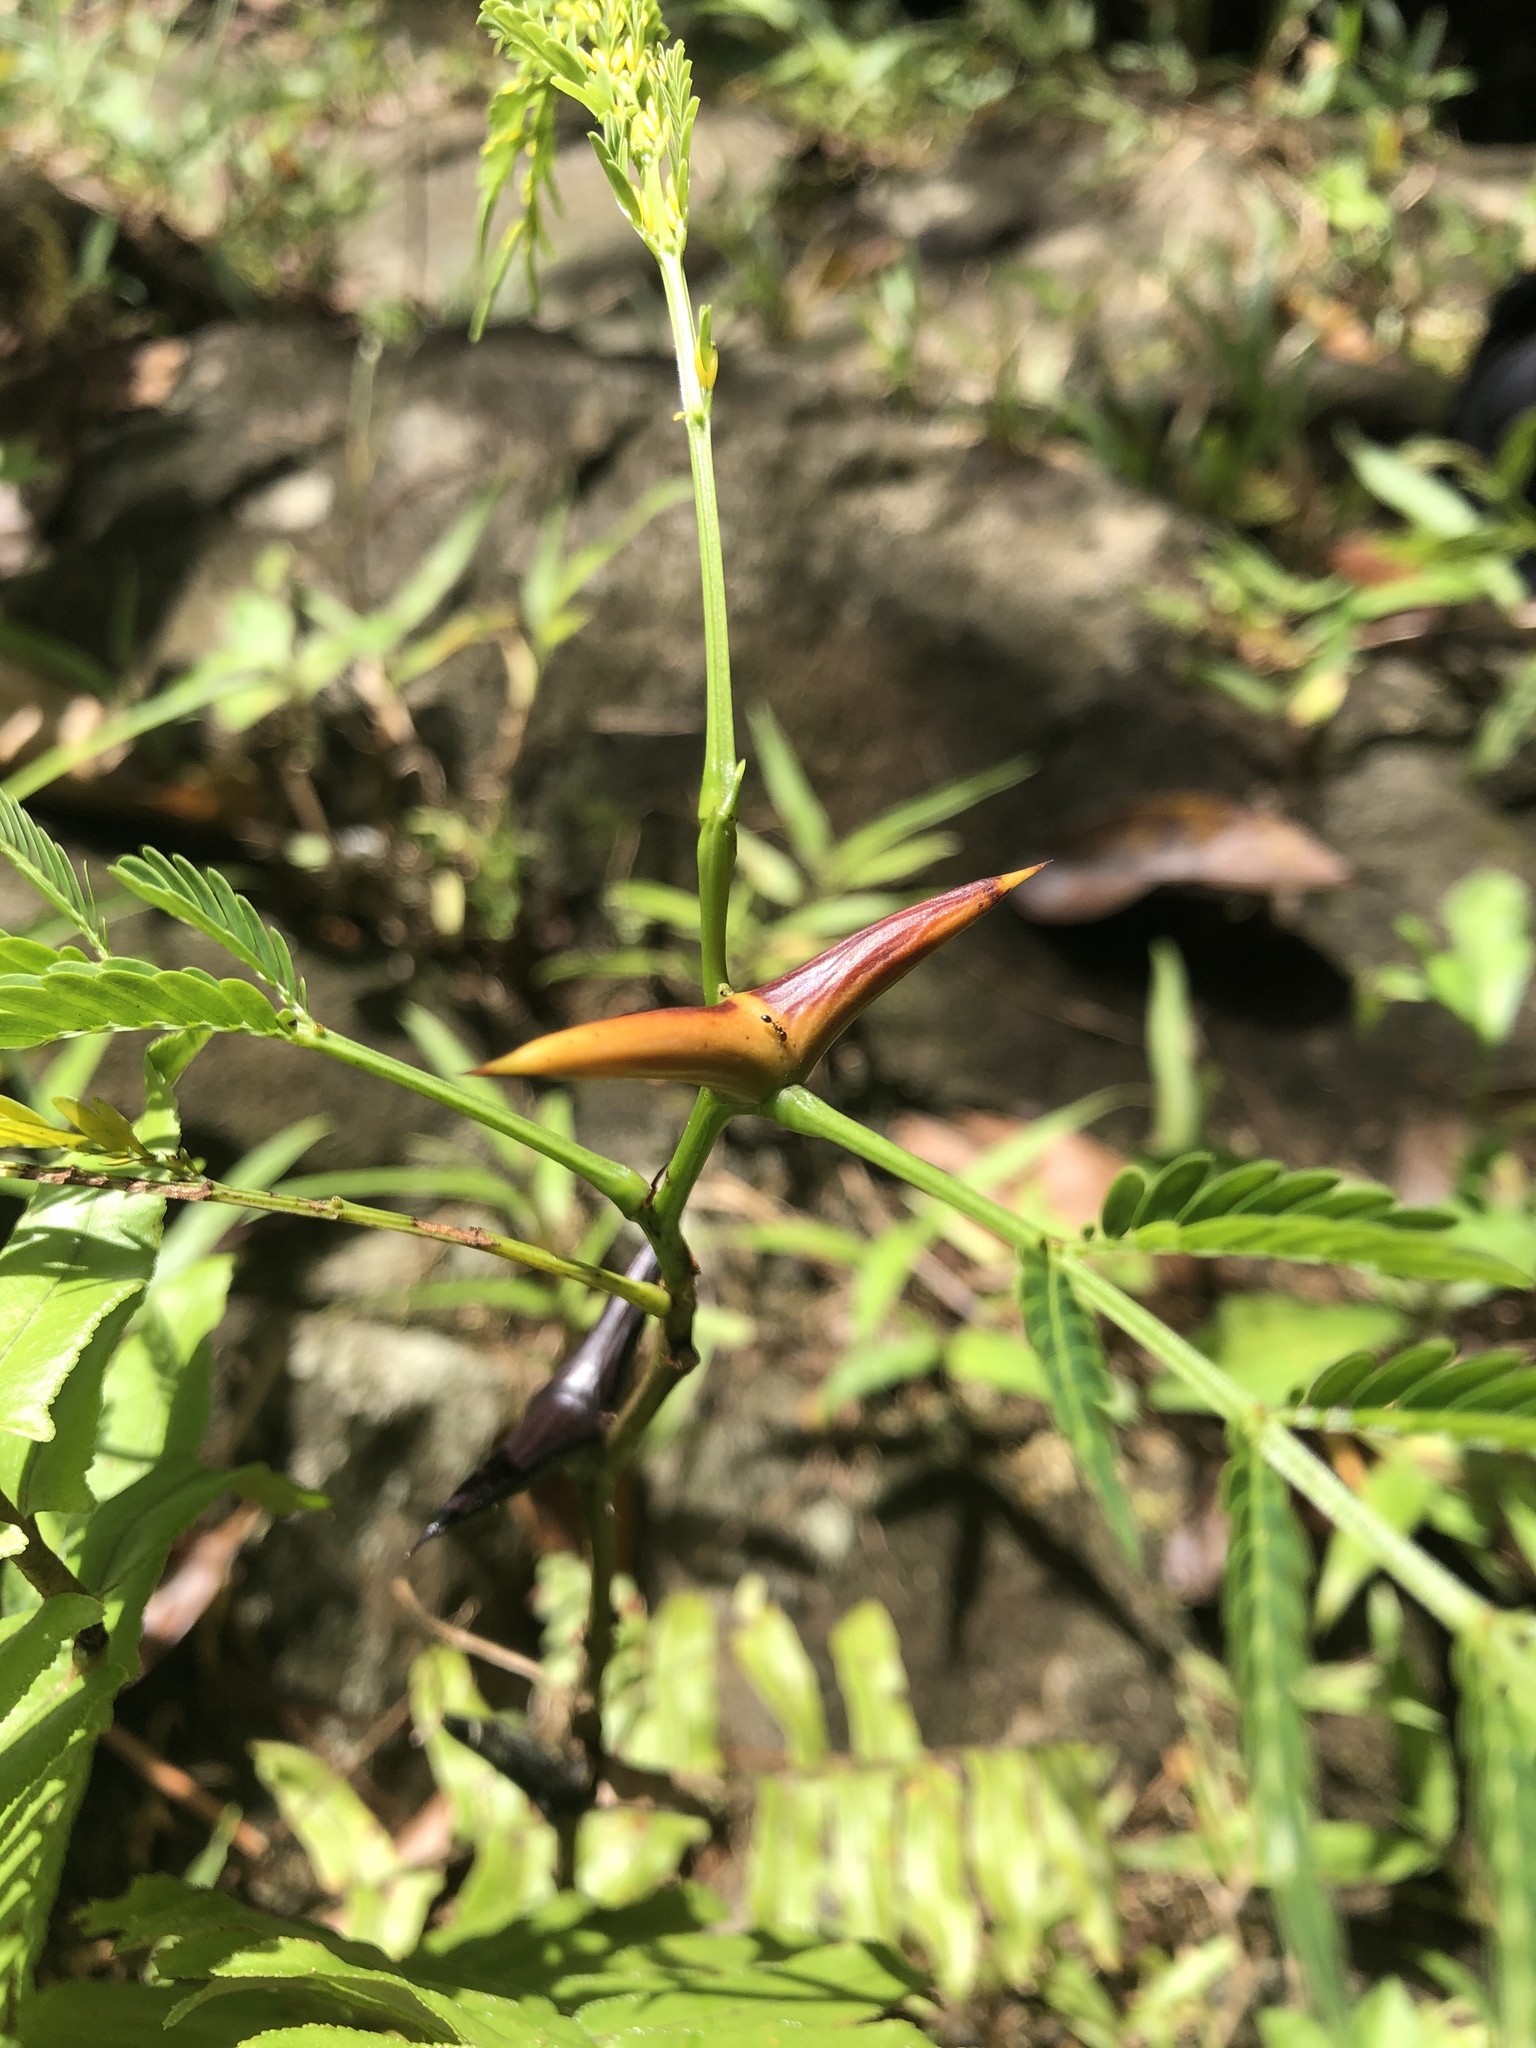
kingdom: Plantae
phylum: Tracheophyta
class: Magnoliopsida
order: Fabales
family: Fabaceae
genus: Vachellia
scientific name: Vachellia allenii
